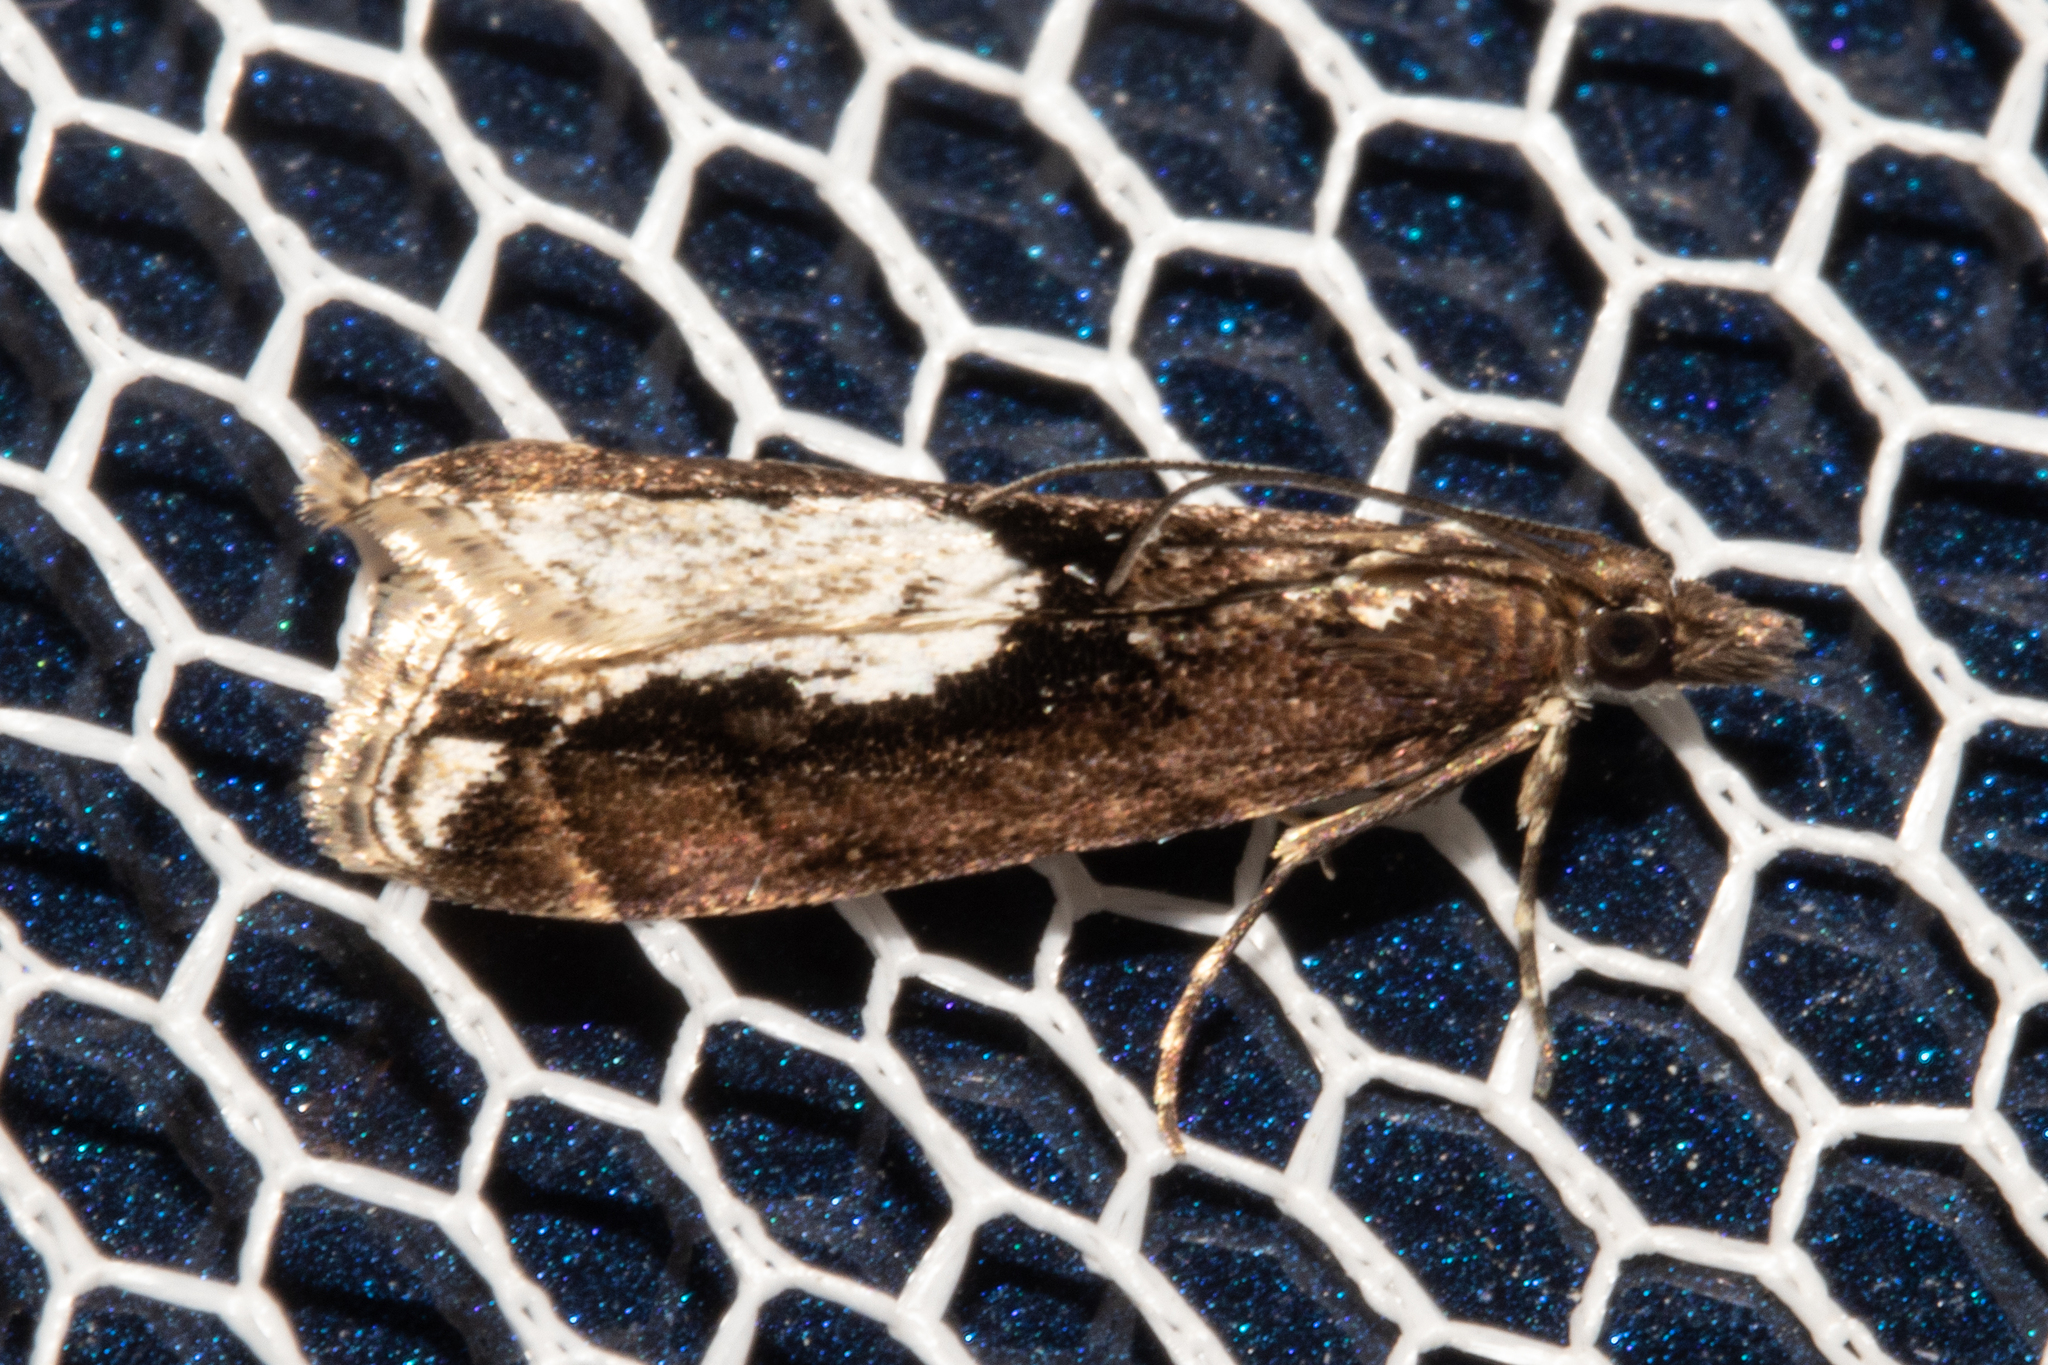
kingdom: Animalia
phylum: Arthropoda
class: Insecta
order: Lepidoptera
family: Crambidae
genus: Eudonia
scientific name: Eudonia hemiplaca
